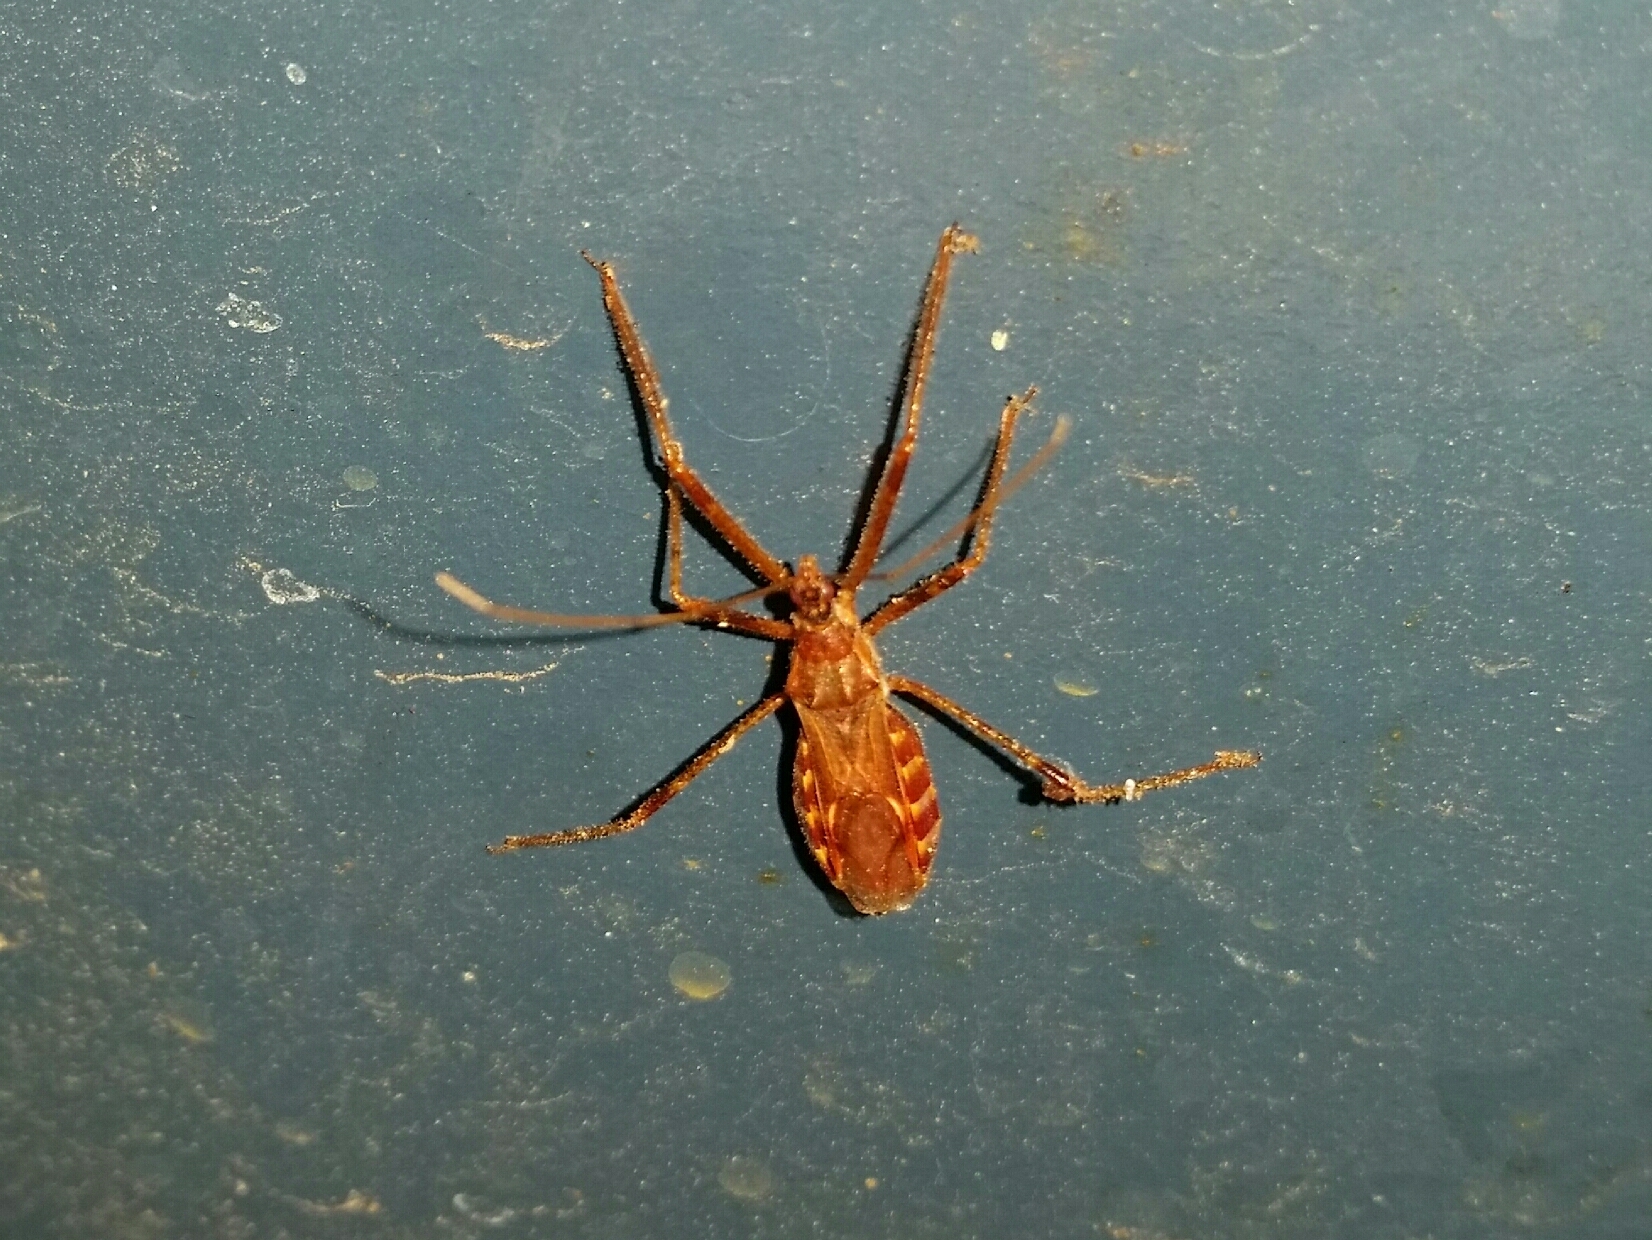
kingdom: Animalia
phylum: Arthropoda
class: Insecta
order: Hemiptera
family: Reduviidae
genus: Zelus
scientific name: Zelus tetracanthus
